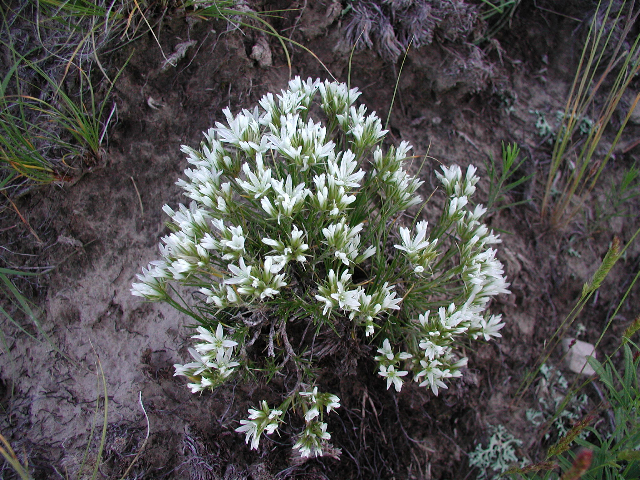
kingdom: Plantae
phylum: Tracheophyta
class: Magnoliopsida
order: Caryophyllales
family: Caryophyllaceae
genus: Eremogone
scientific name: Eremogone hookeri
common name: Hooker's sandwort
